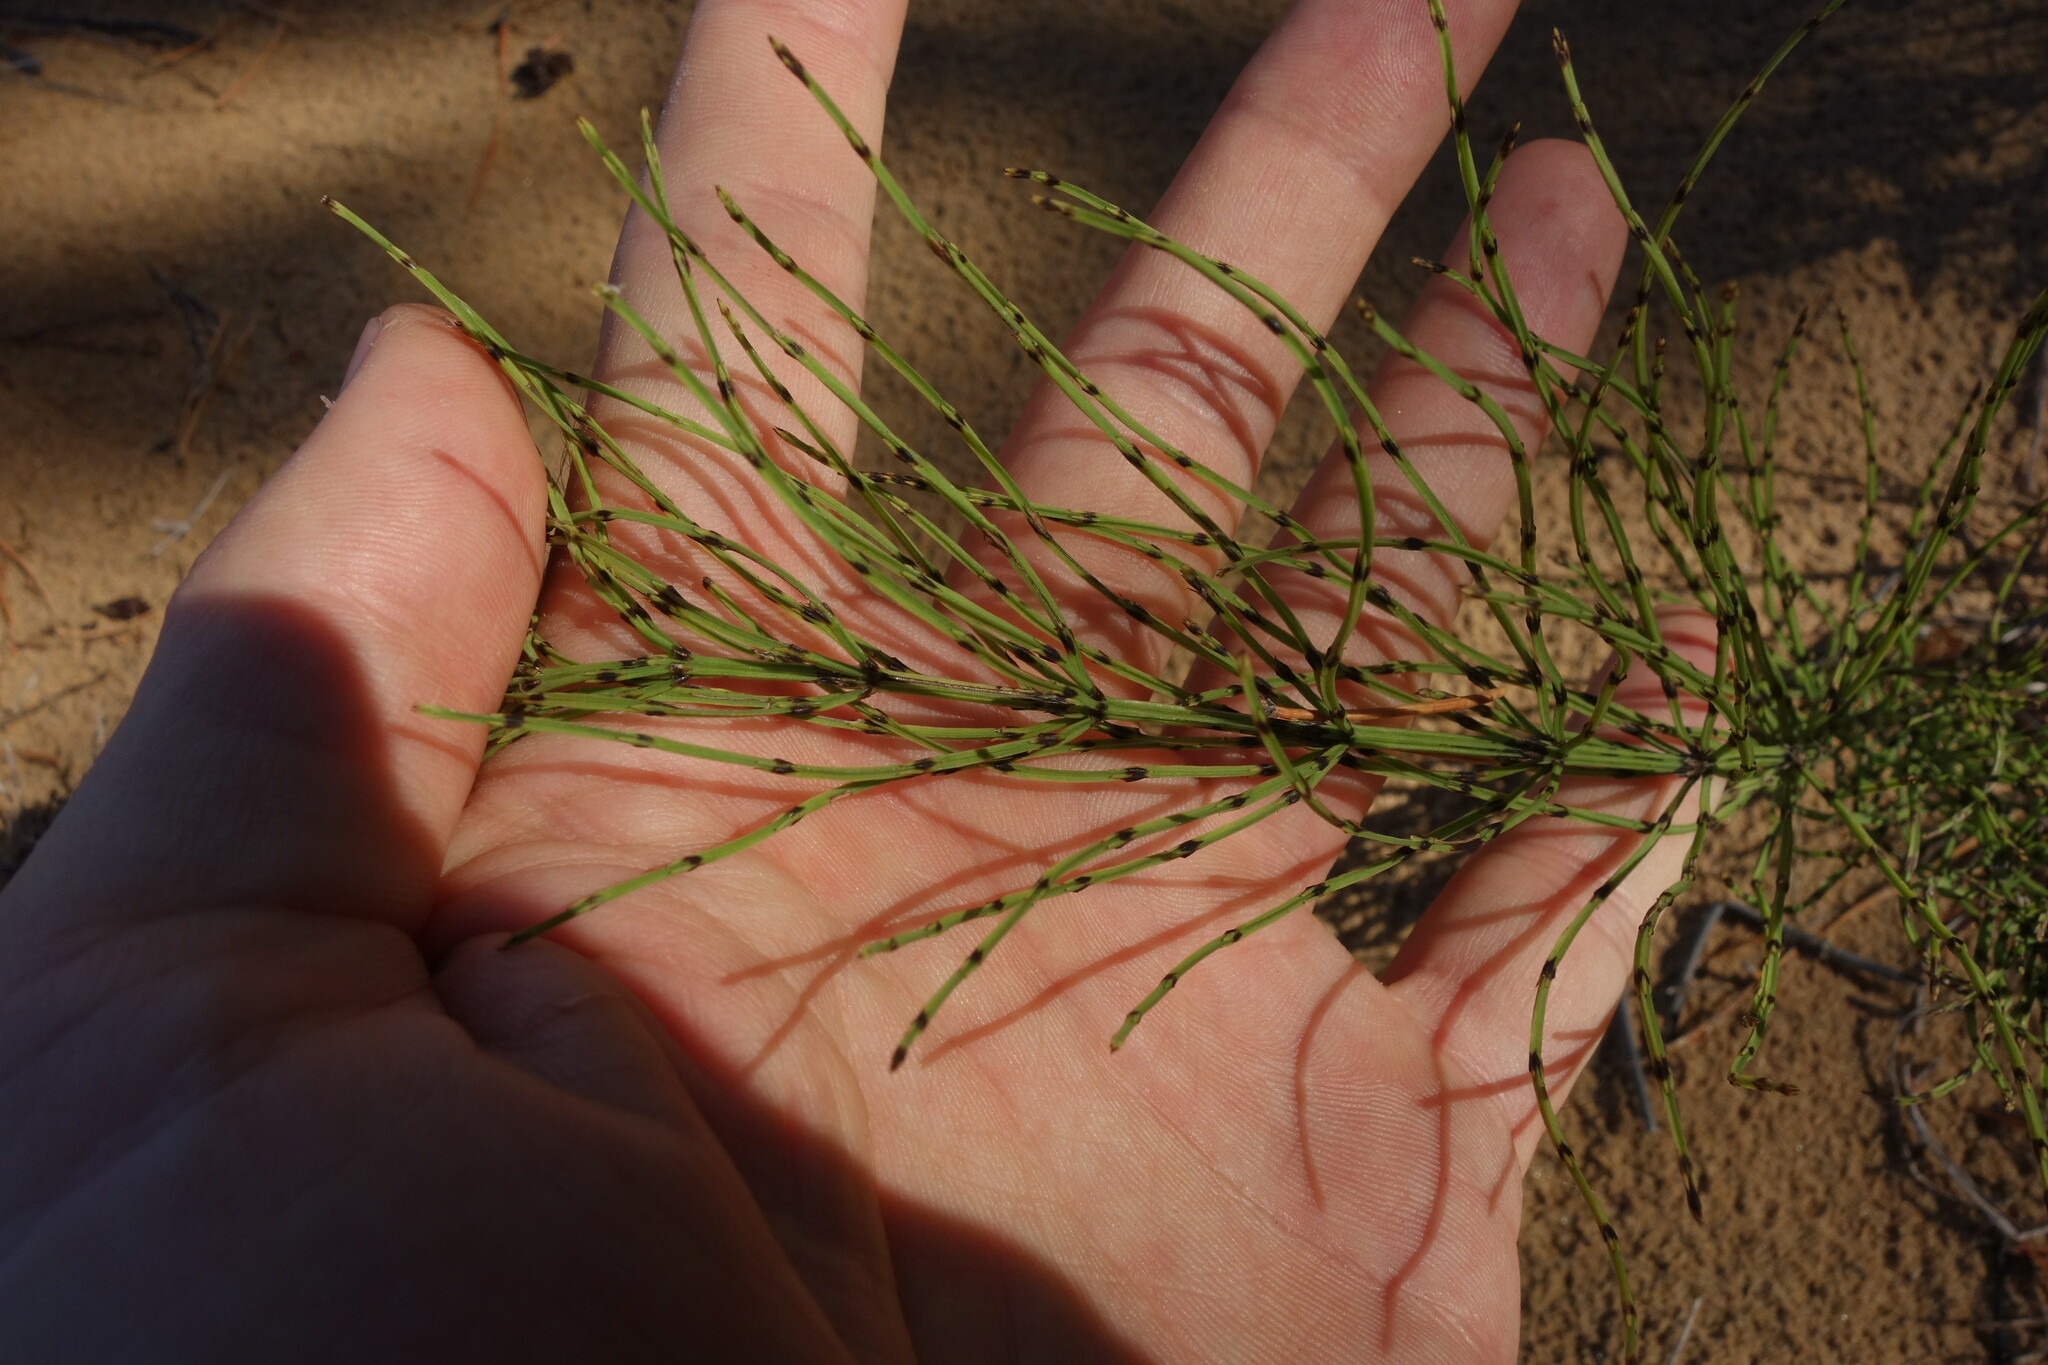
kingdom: Plantae
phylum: Tracheophyta
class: Polypodiopsida
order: Equisetales
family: Equisetaceae
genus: Equisetum
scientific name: Equisetum arvense
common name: Field horsetail
